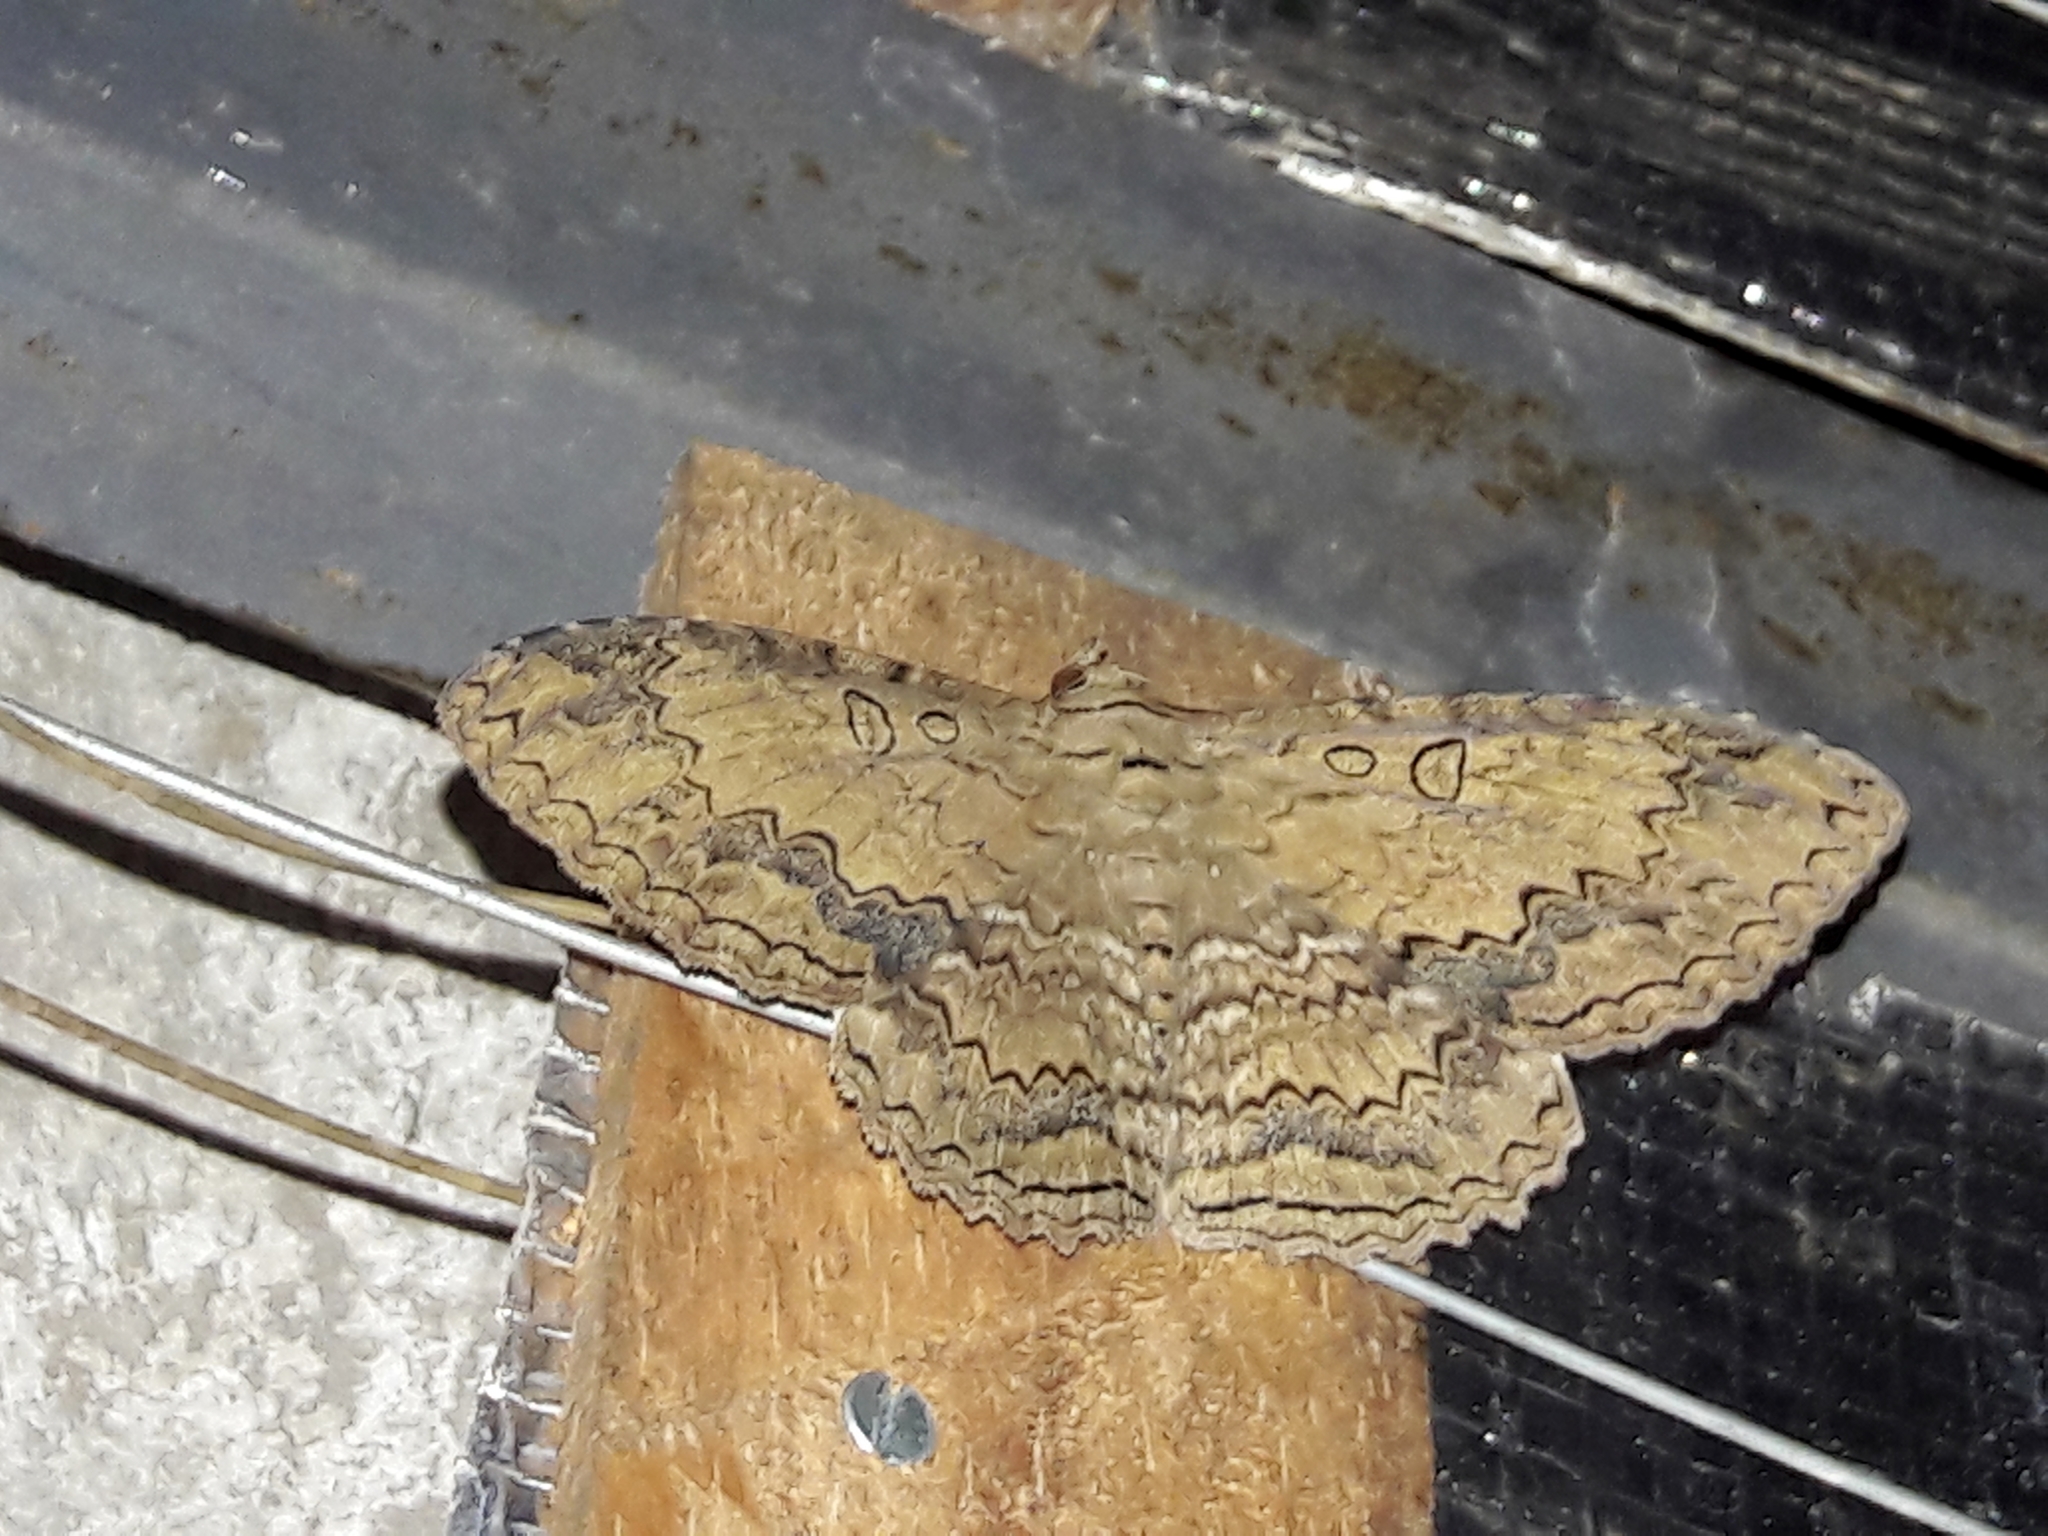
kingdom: Animalia
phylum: Arthropoda
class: Insecta
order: Lepidoptera
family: Erebidae
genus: Feigeria
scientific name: Feigeria buteo
